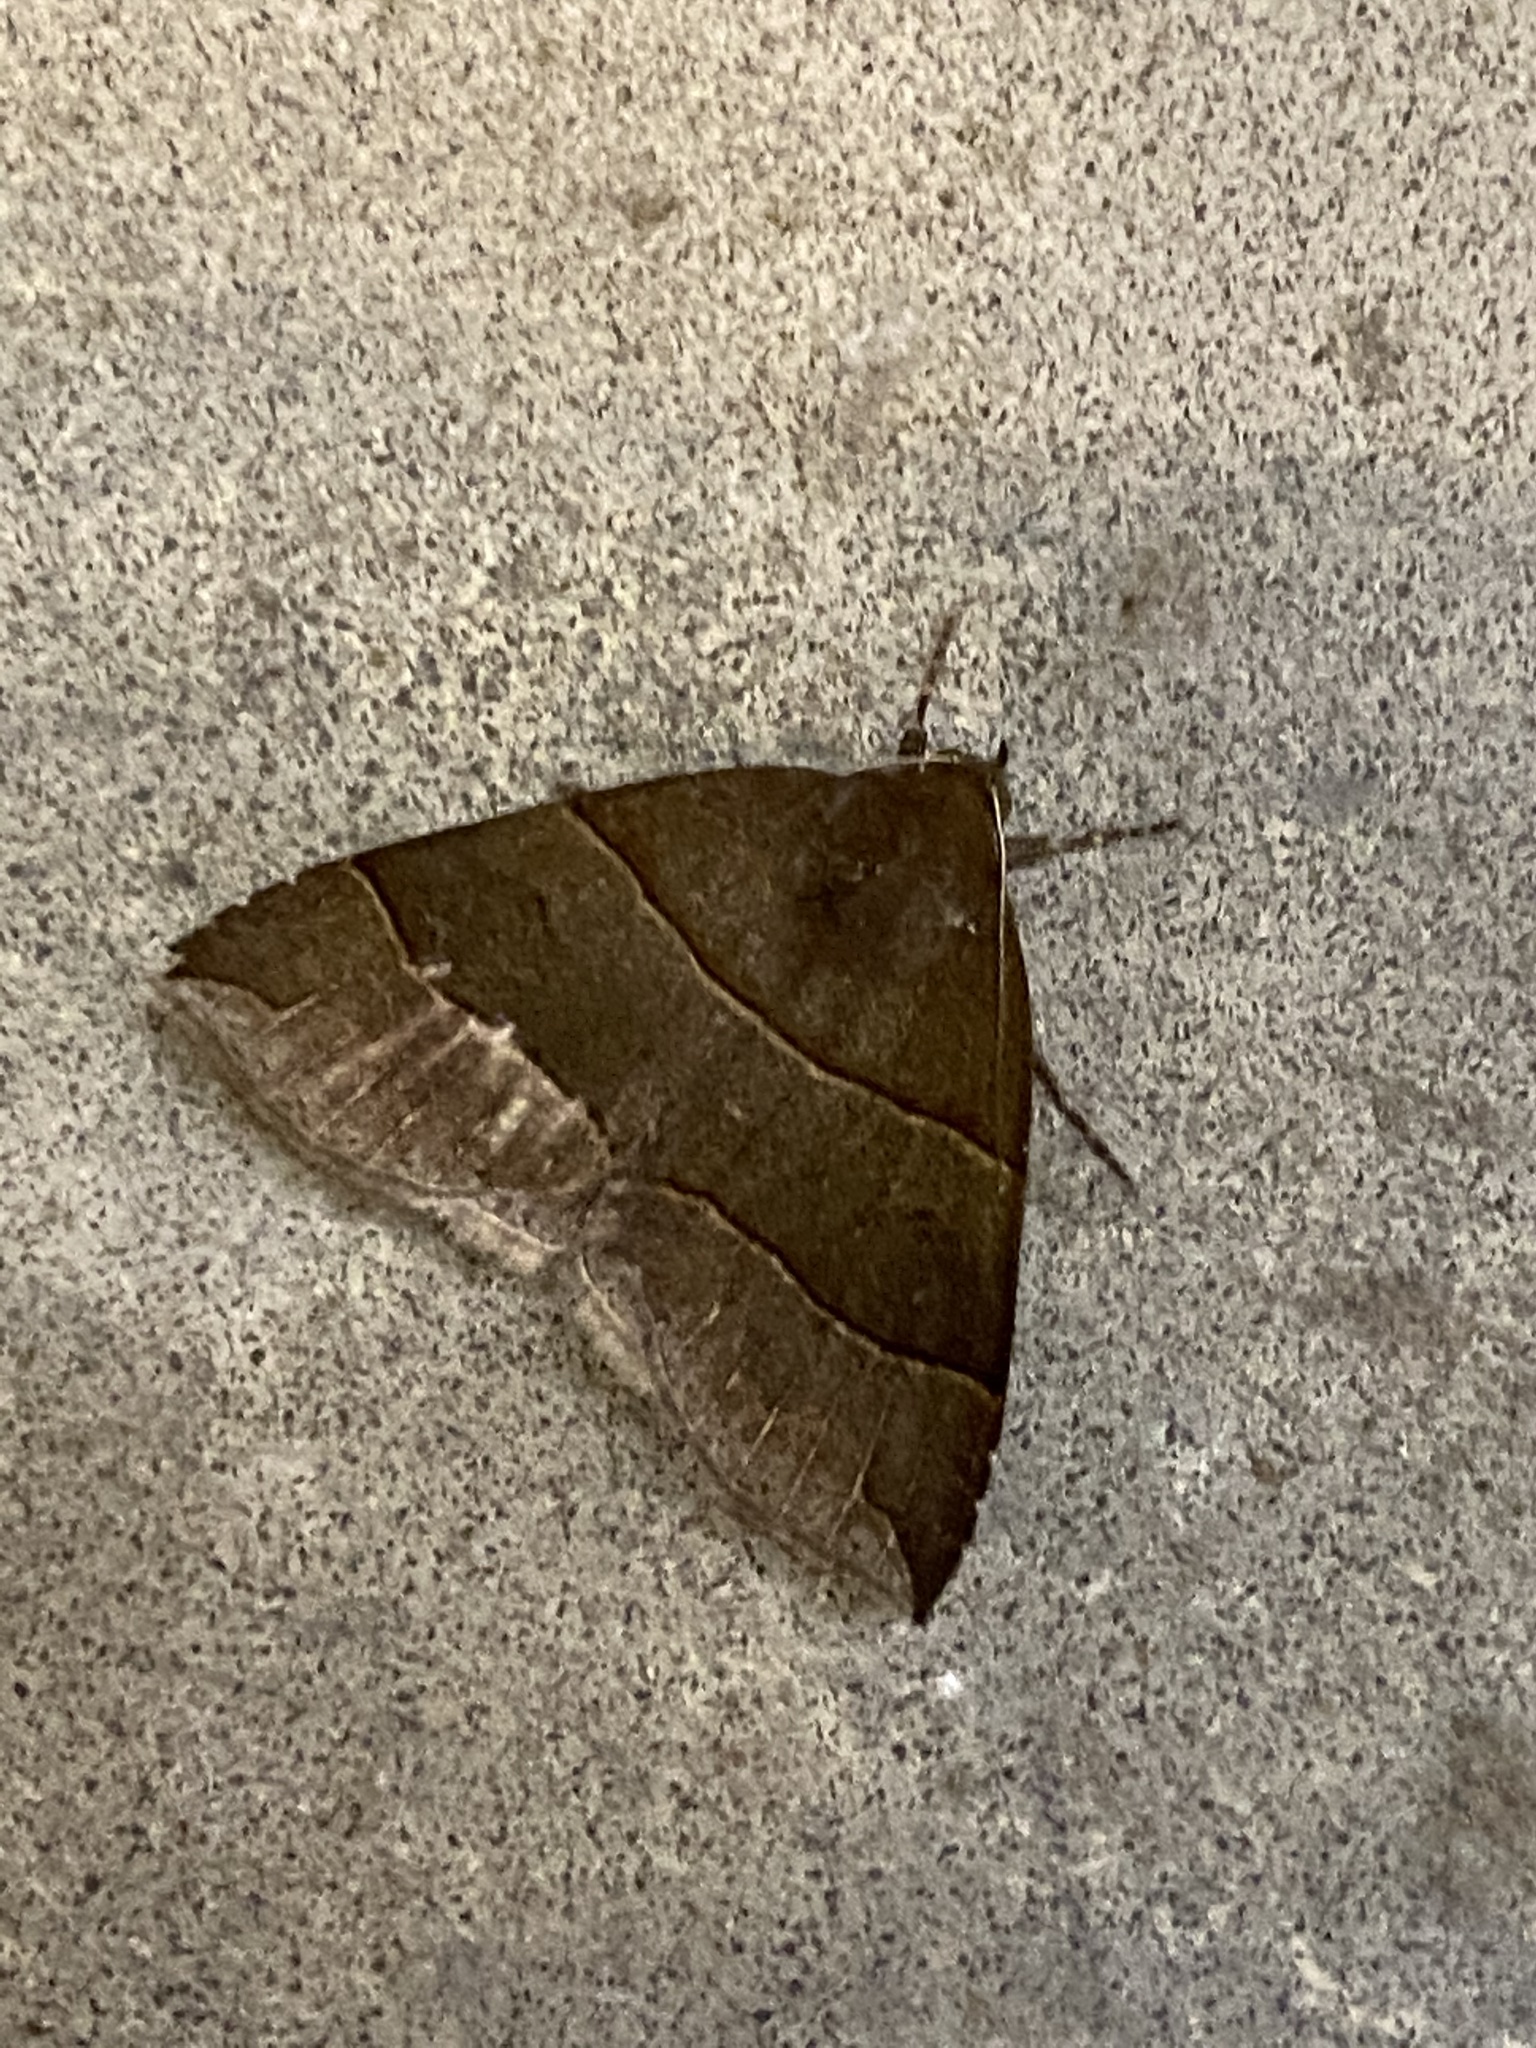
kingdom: Animalia
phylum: Arthropoda
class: Insecta
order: Lepidoptera
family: Erebidae
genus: Parallelia
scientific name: Parallelia bistriaris
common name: Maple looper moth
